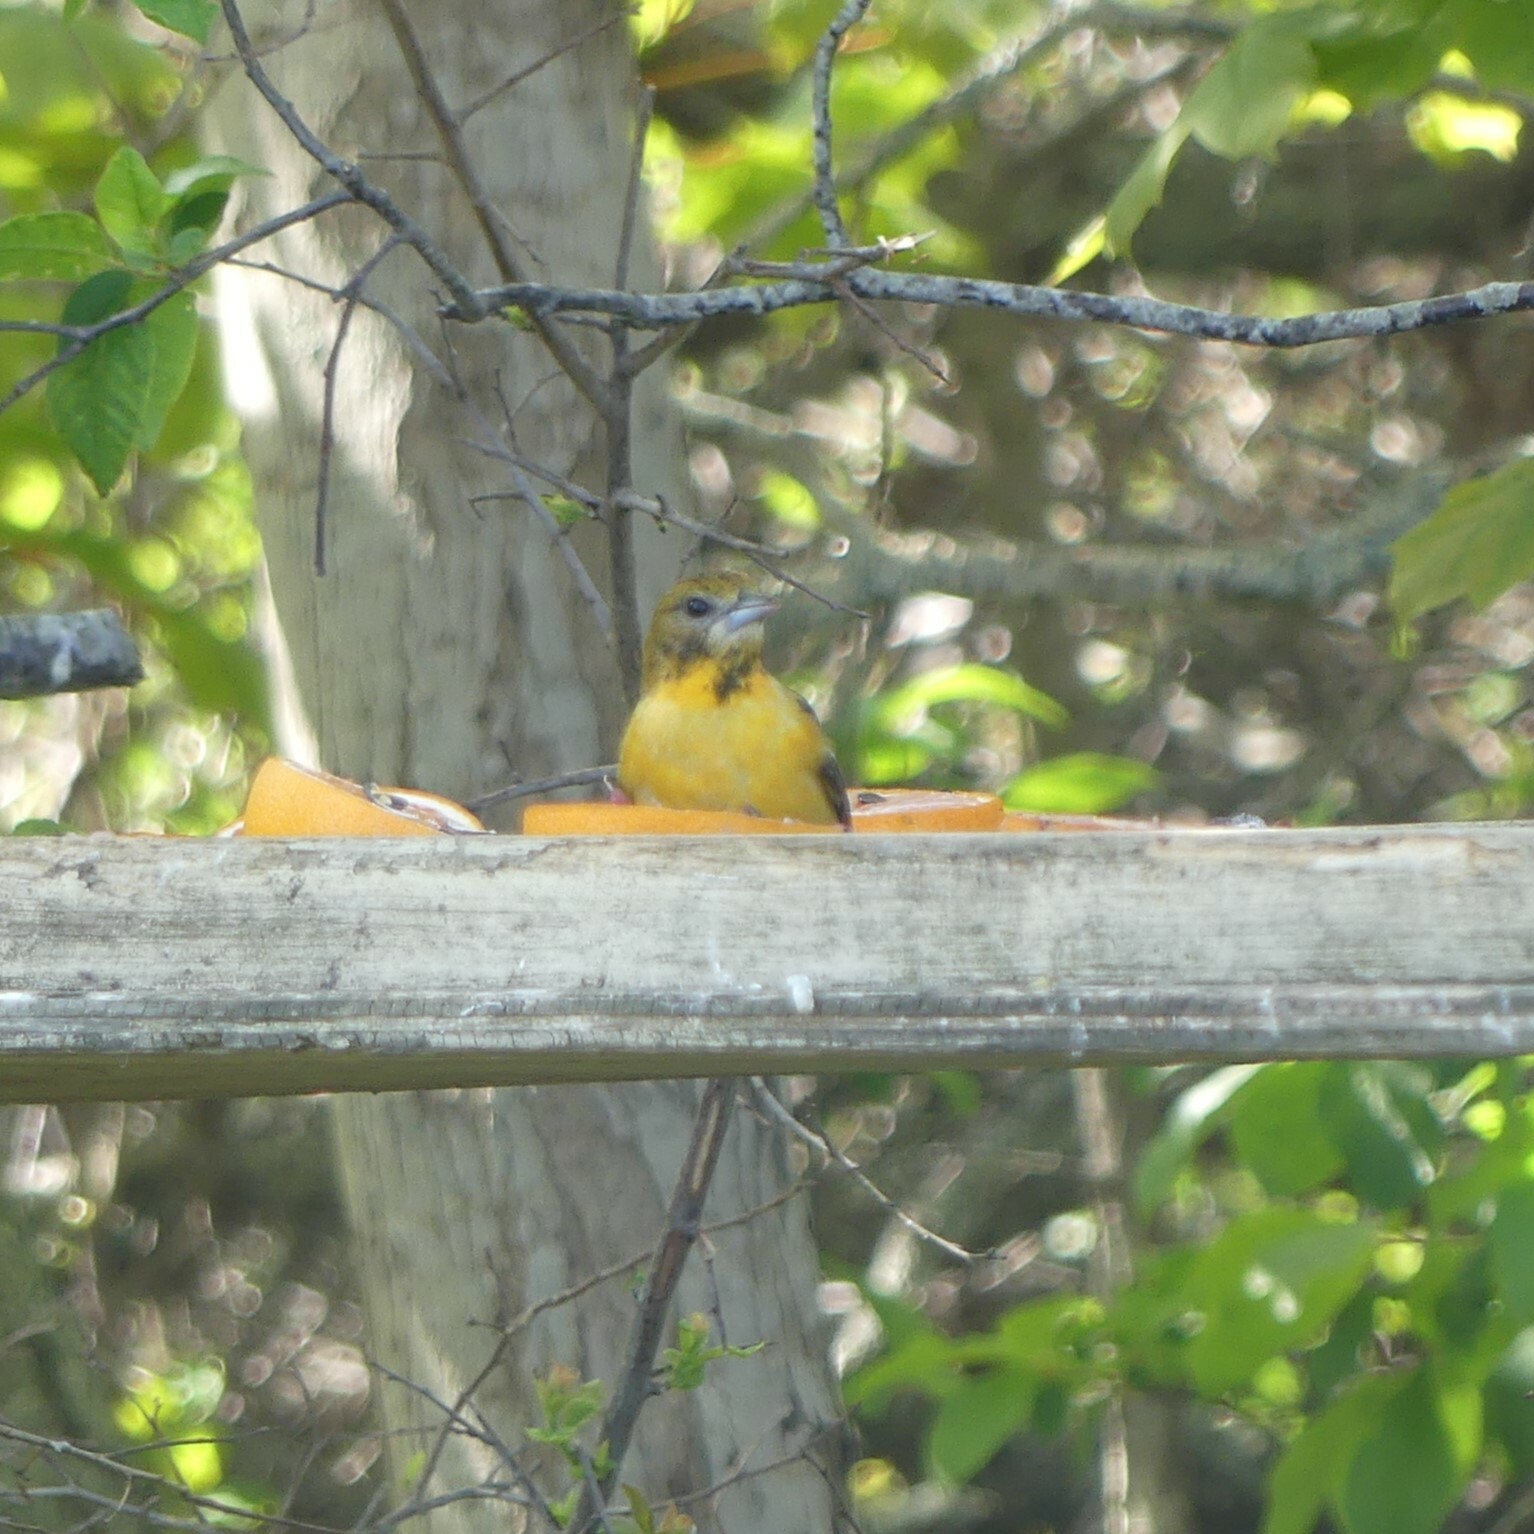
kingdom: Animalia
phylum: Chordata
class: Aves
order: Passeriformes
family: Icteridae
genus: Icterus
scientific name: Icterus galbula
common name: Baltimore oriole
